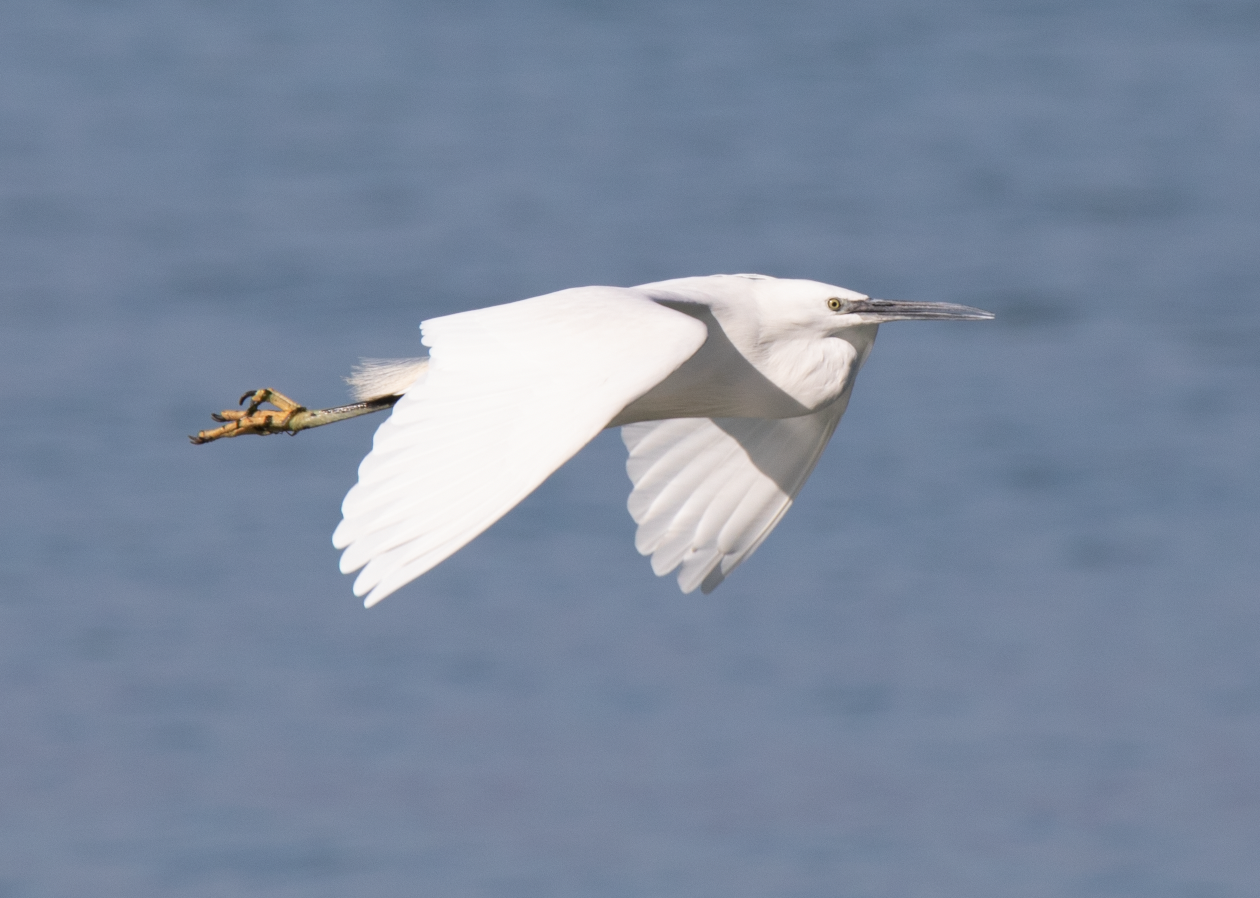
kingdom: Animalia
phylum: Chordata
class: Aves
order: Pelecaniformes
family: Ardeidae
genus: Egretta
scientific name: Egretta garzetta
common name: Little egret
